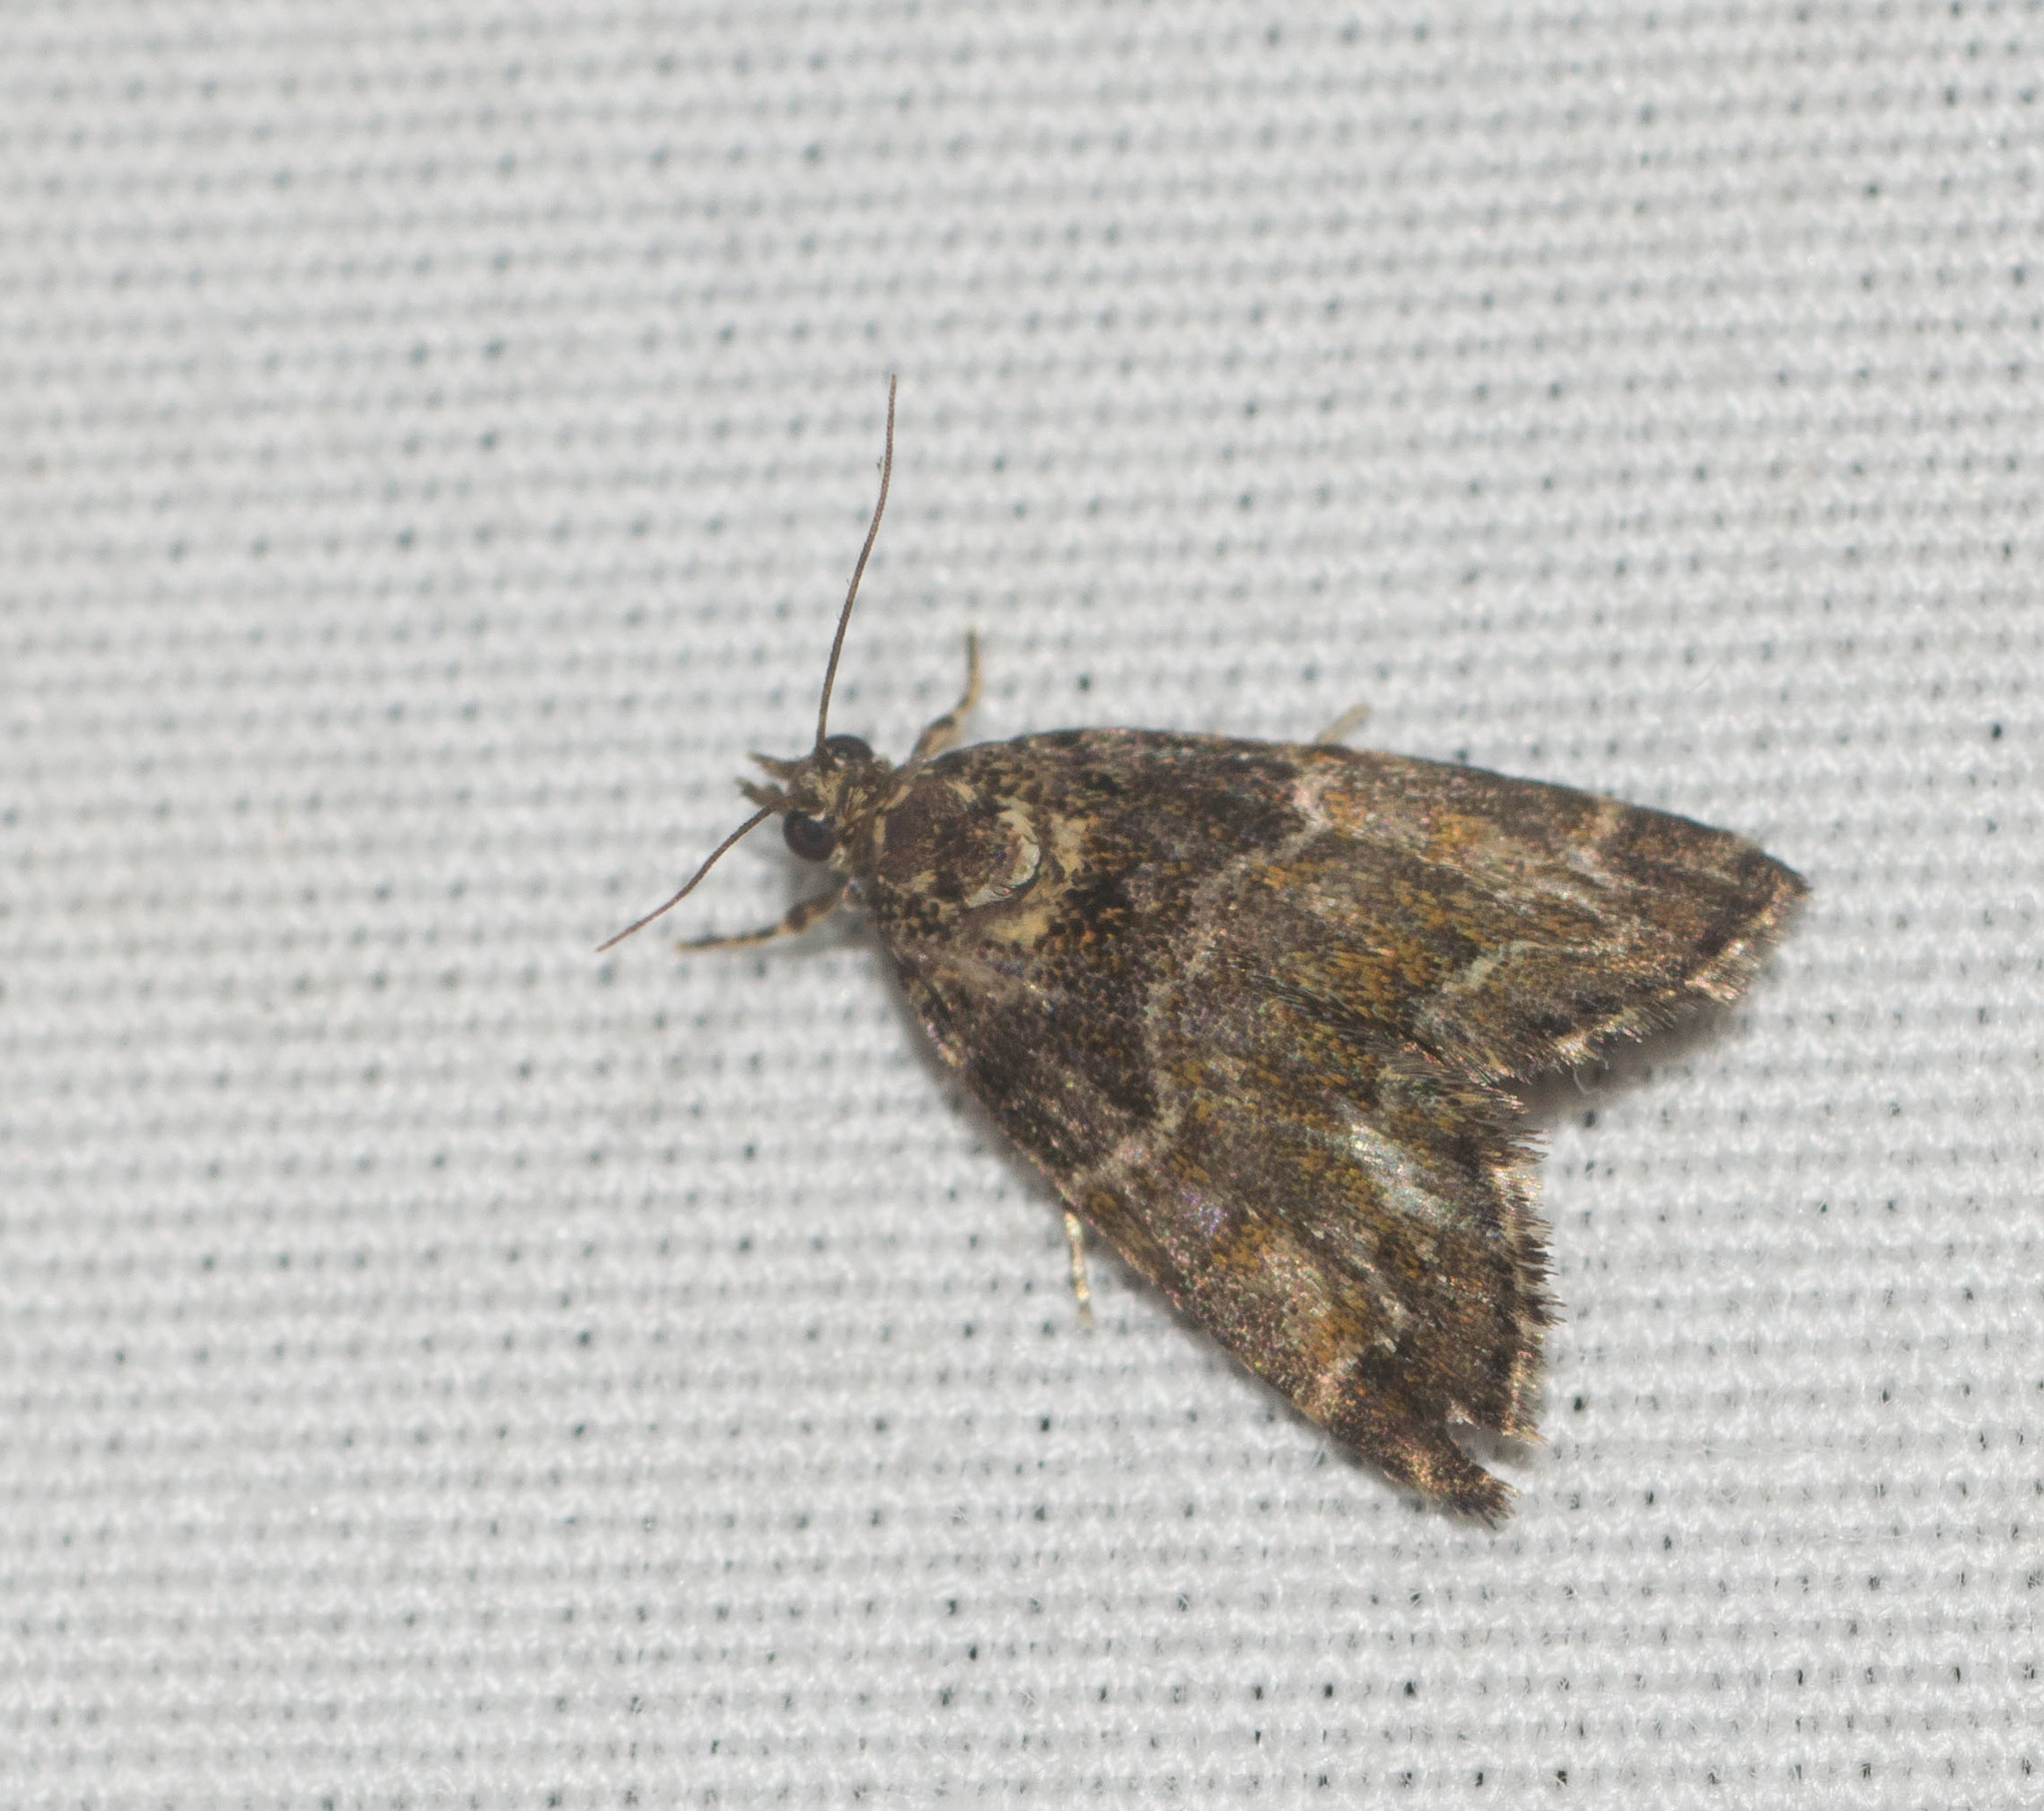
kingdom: Animalia
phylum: Arthropoda
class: Insecta
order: Lepidoptera
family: Crambidae
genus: Mestolobes
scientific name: Mestolobes abnormis
